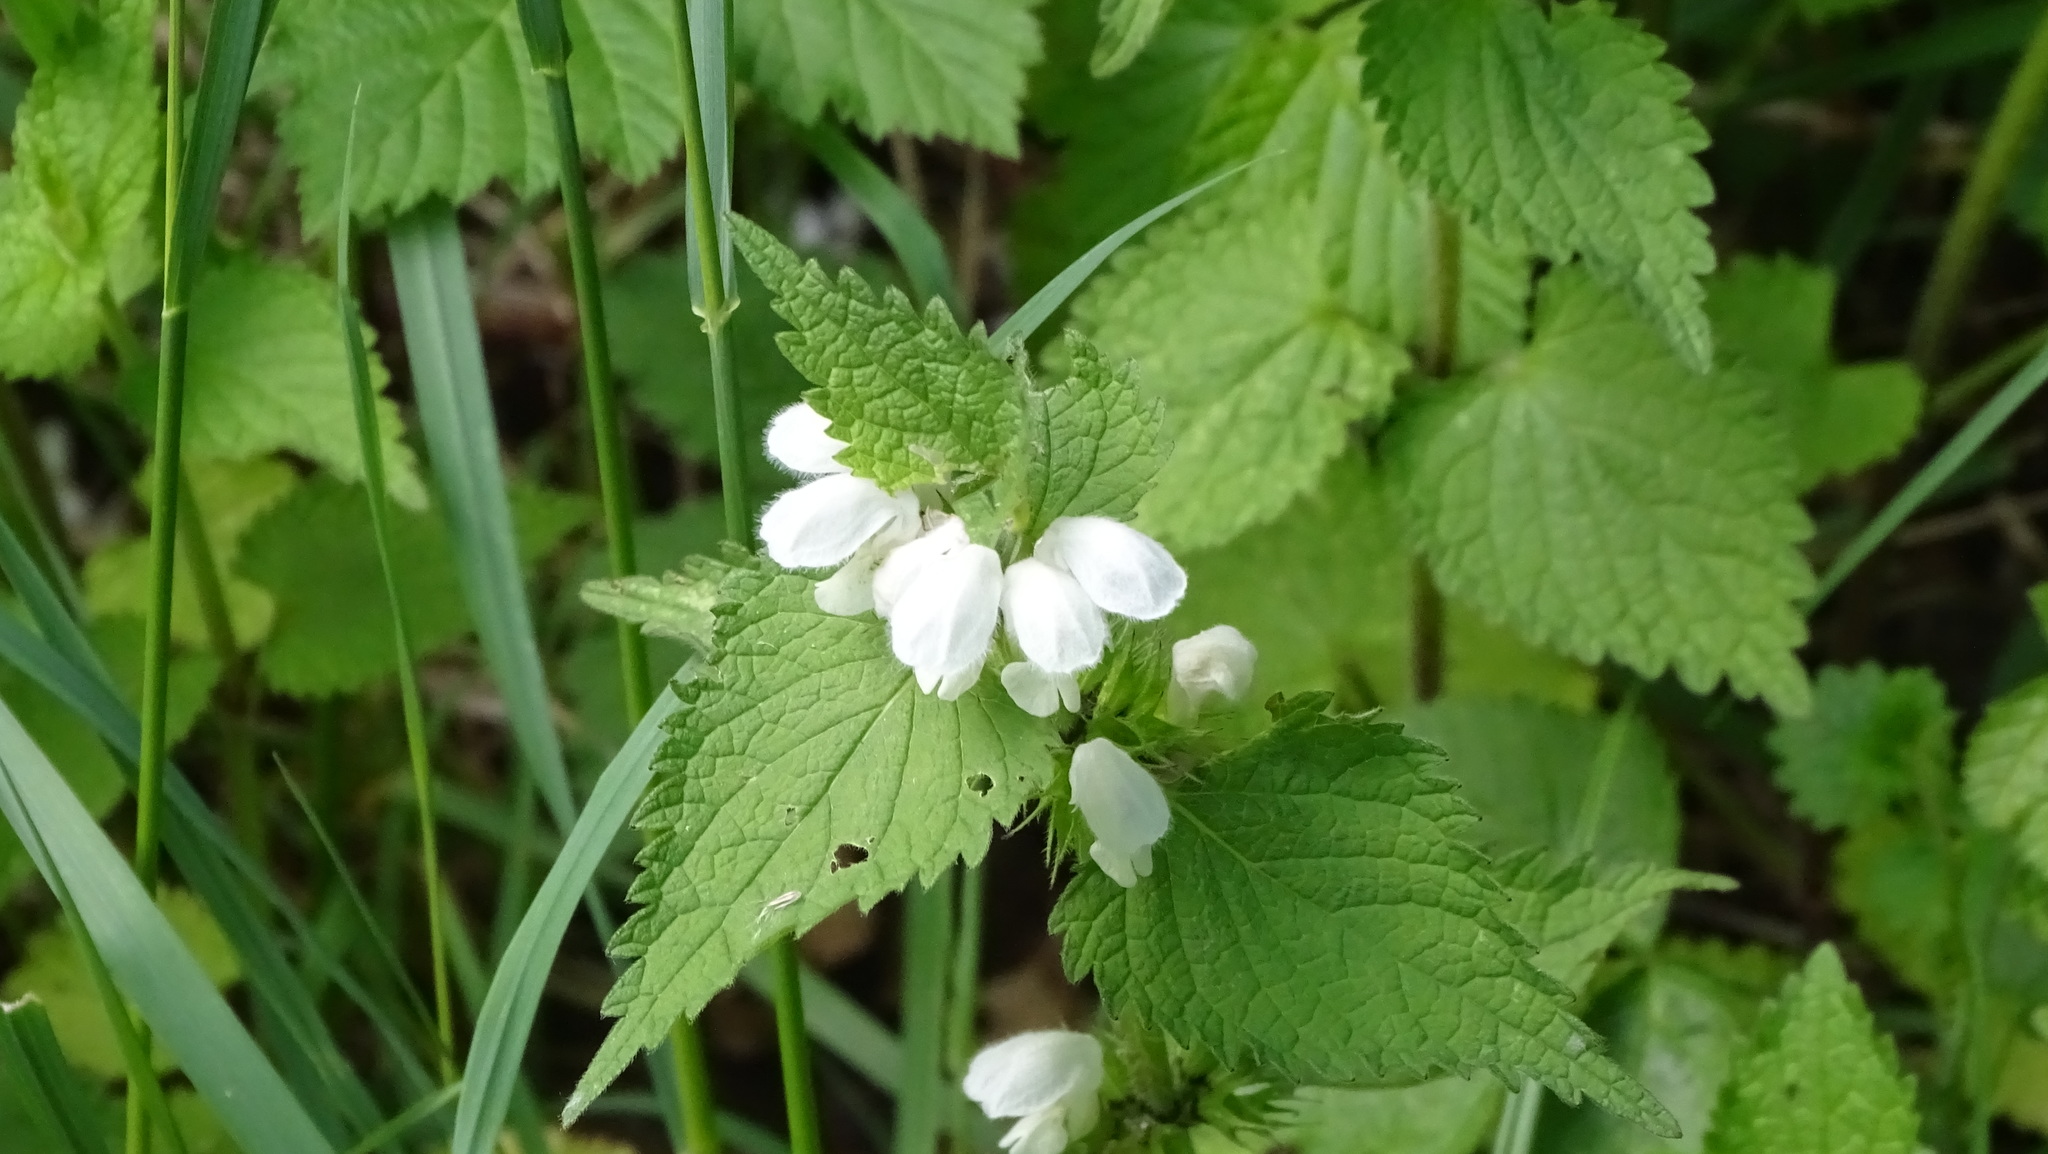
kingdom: Plantae
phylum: Tracheophyta
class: Magnoliopsida
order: Lamiales
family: Lamiaceae
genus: Lamium
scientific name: Lamium album
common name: White dead-nettle
